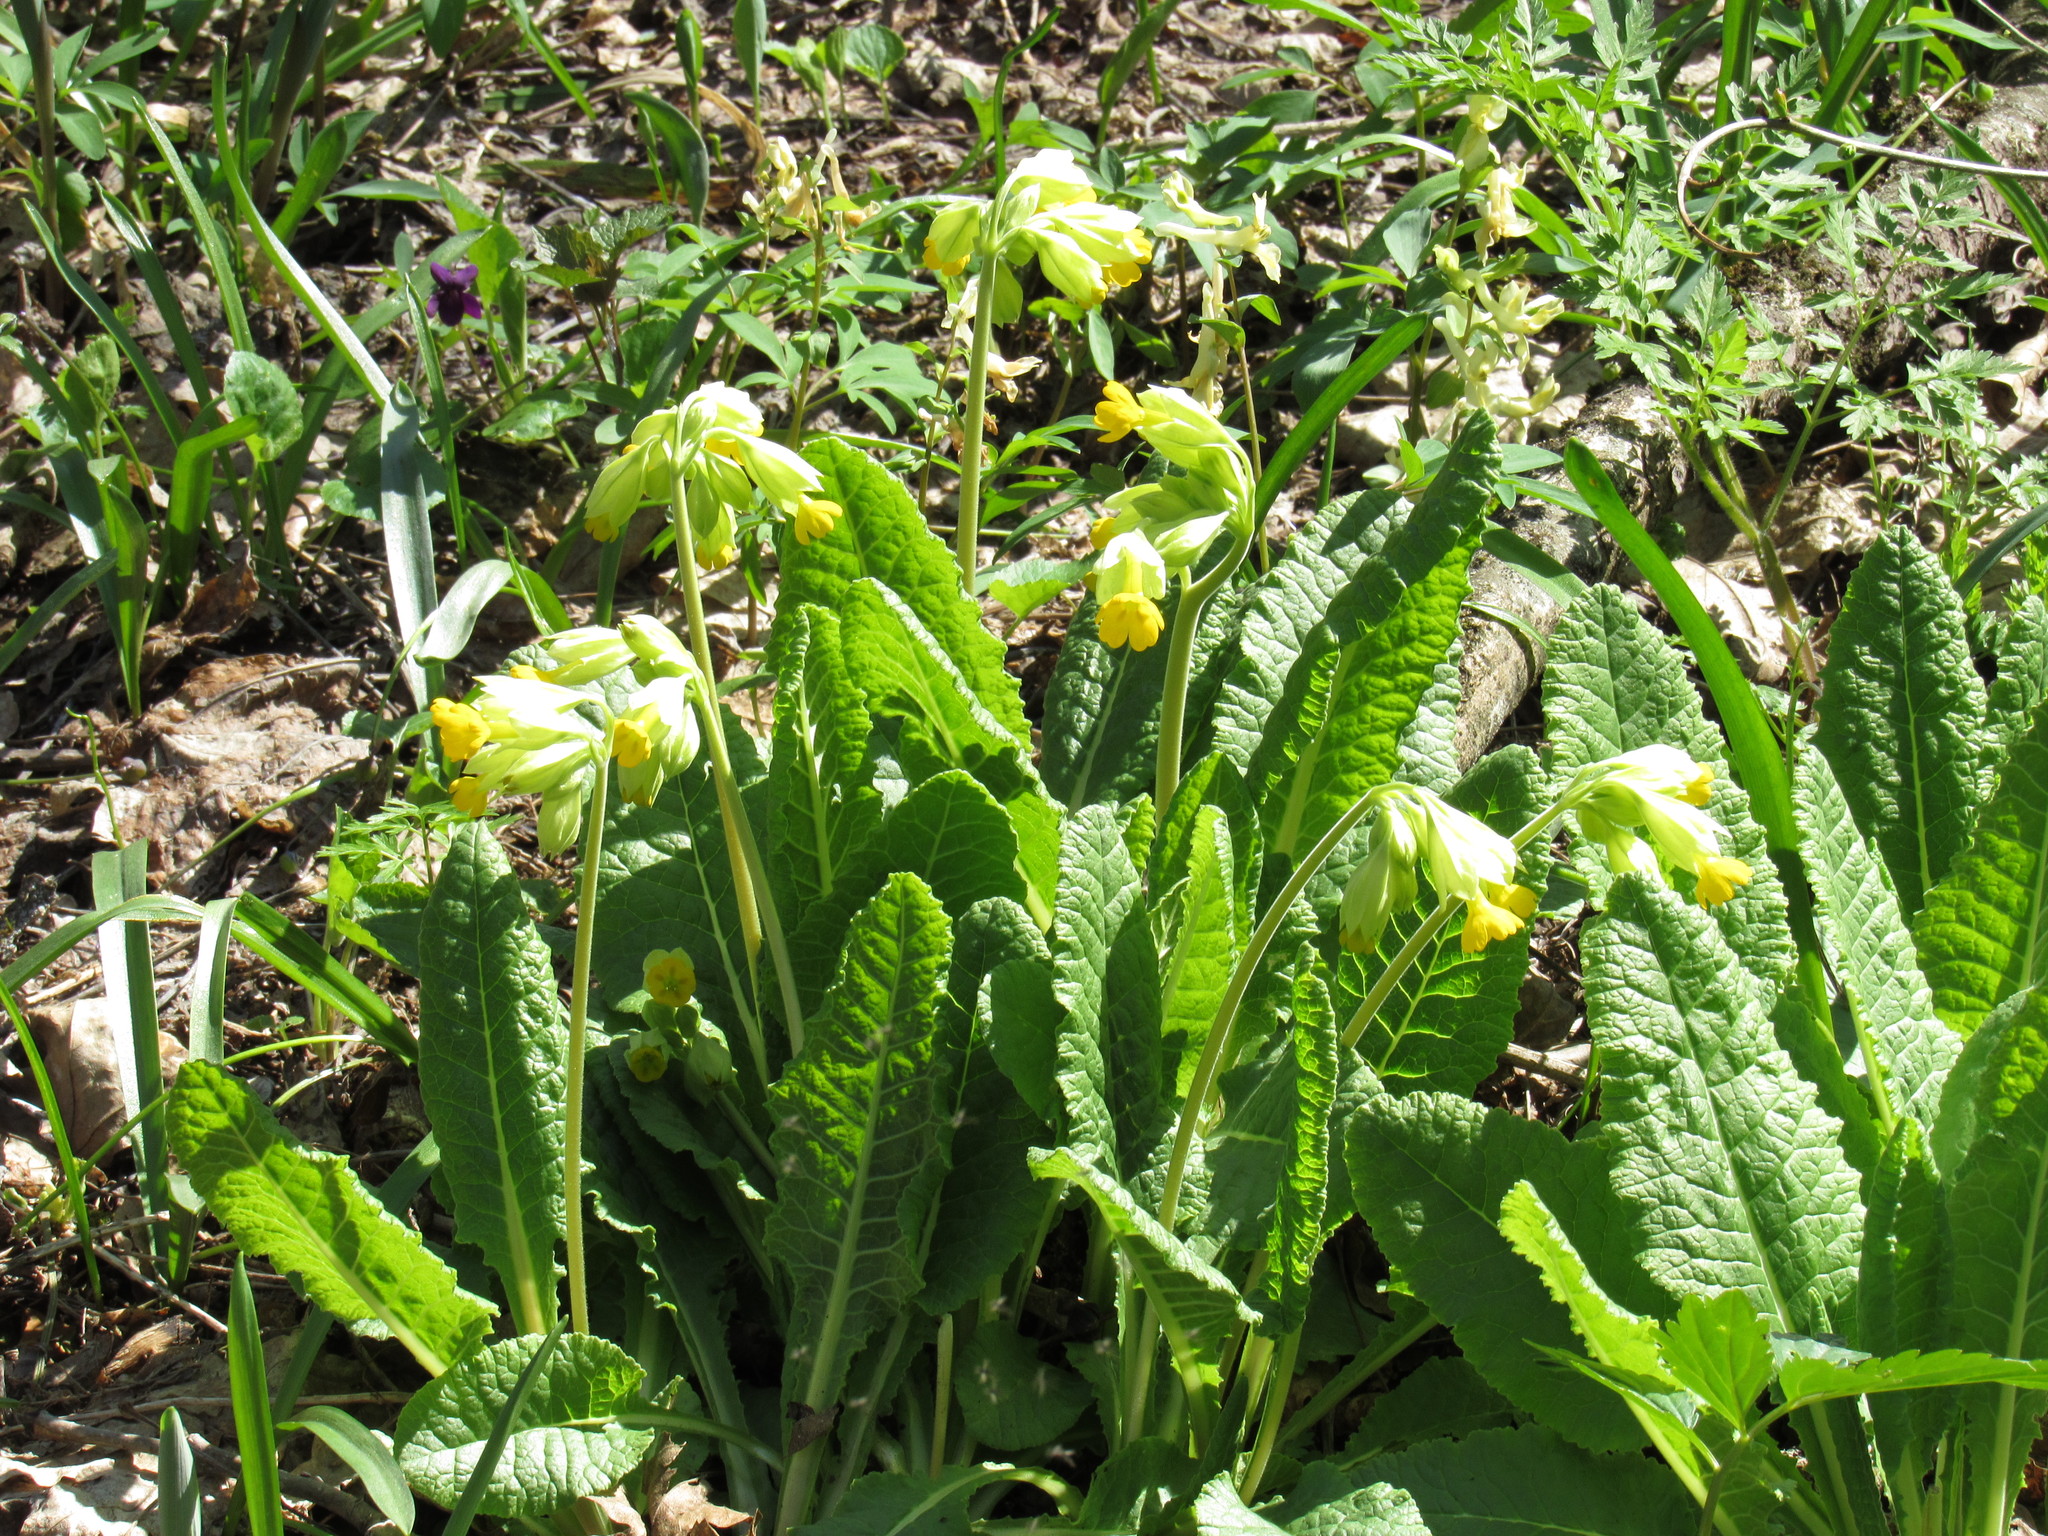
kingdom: Plantae
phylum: Tracheophyta
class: Magnoliopsida
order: Ericales
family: Primulaceae
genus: Primula
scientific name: Primula veris
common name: Cowslip
